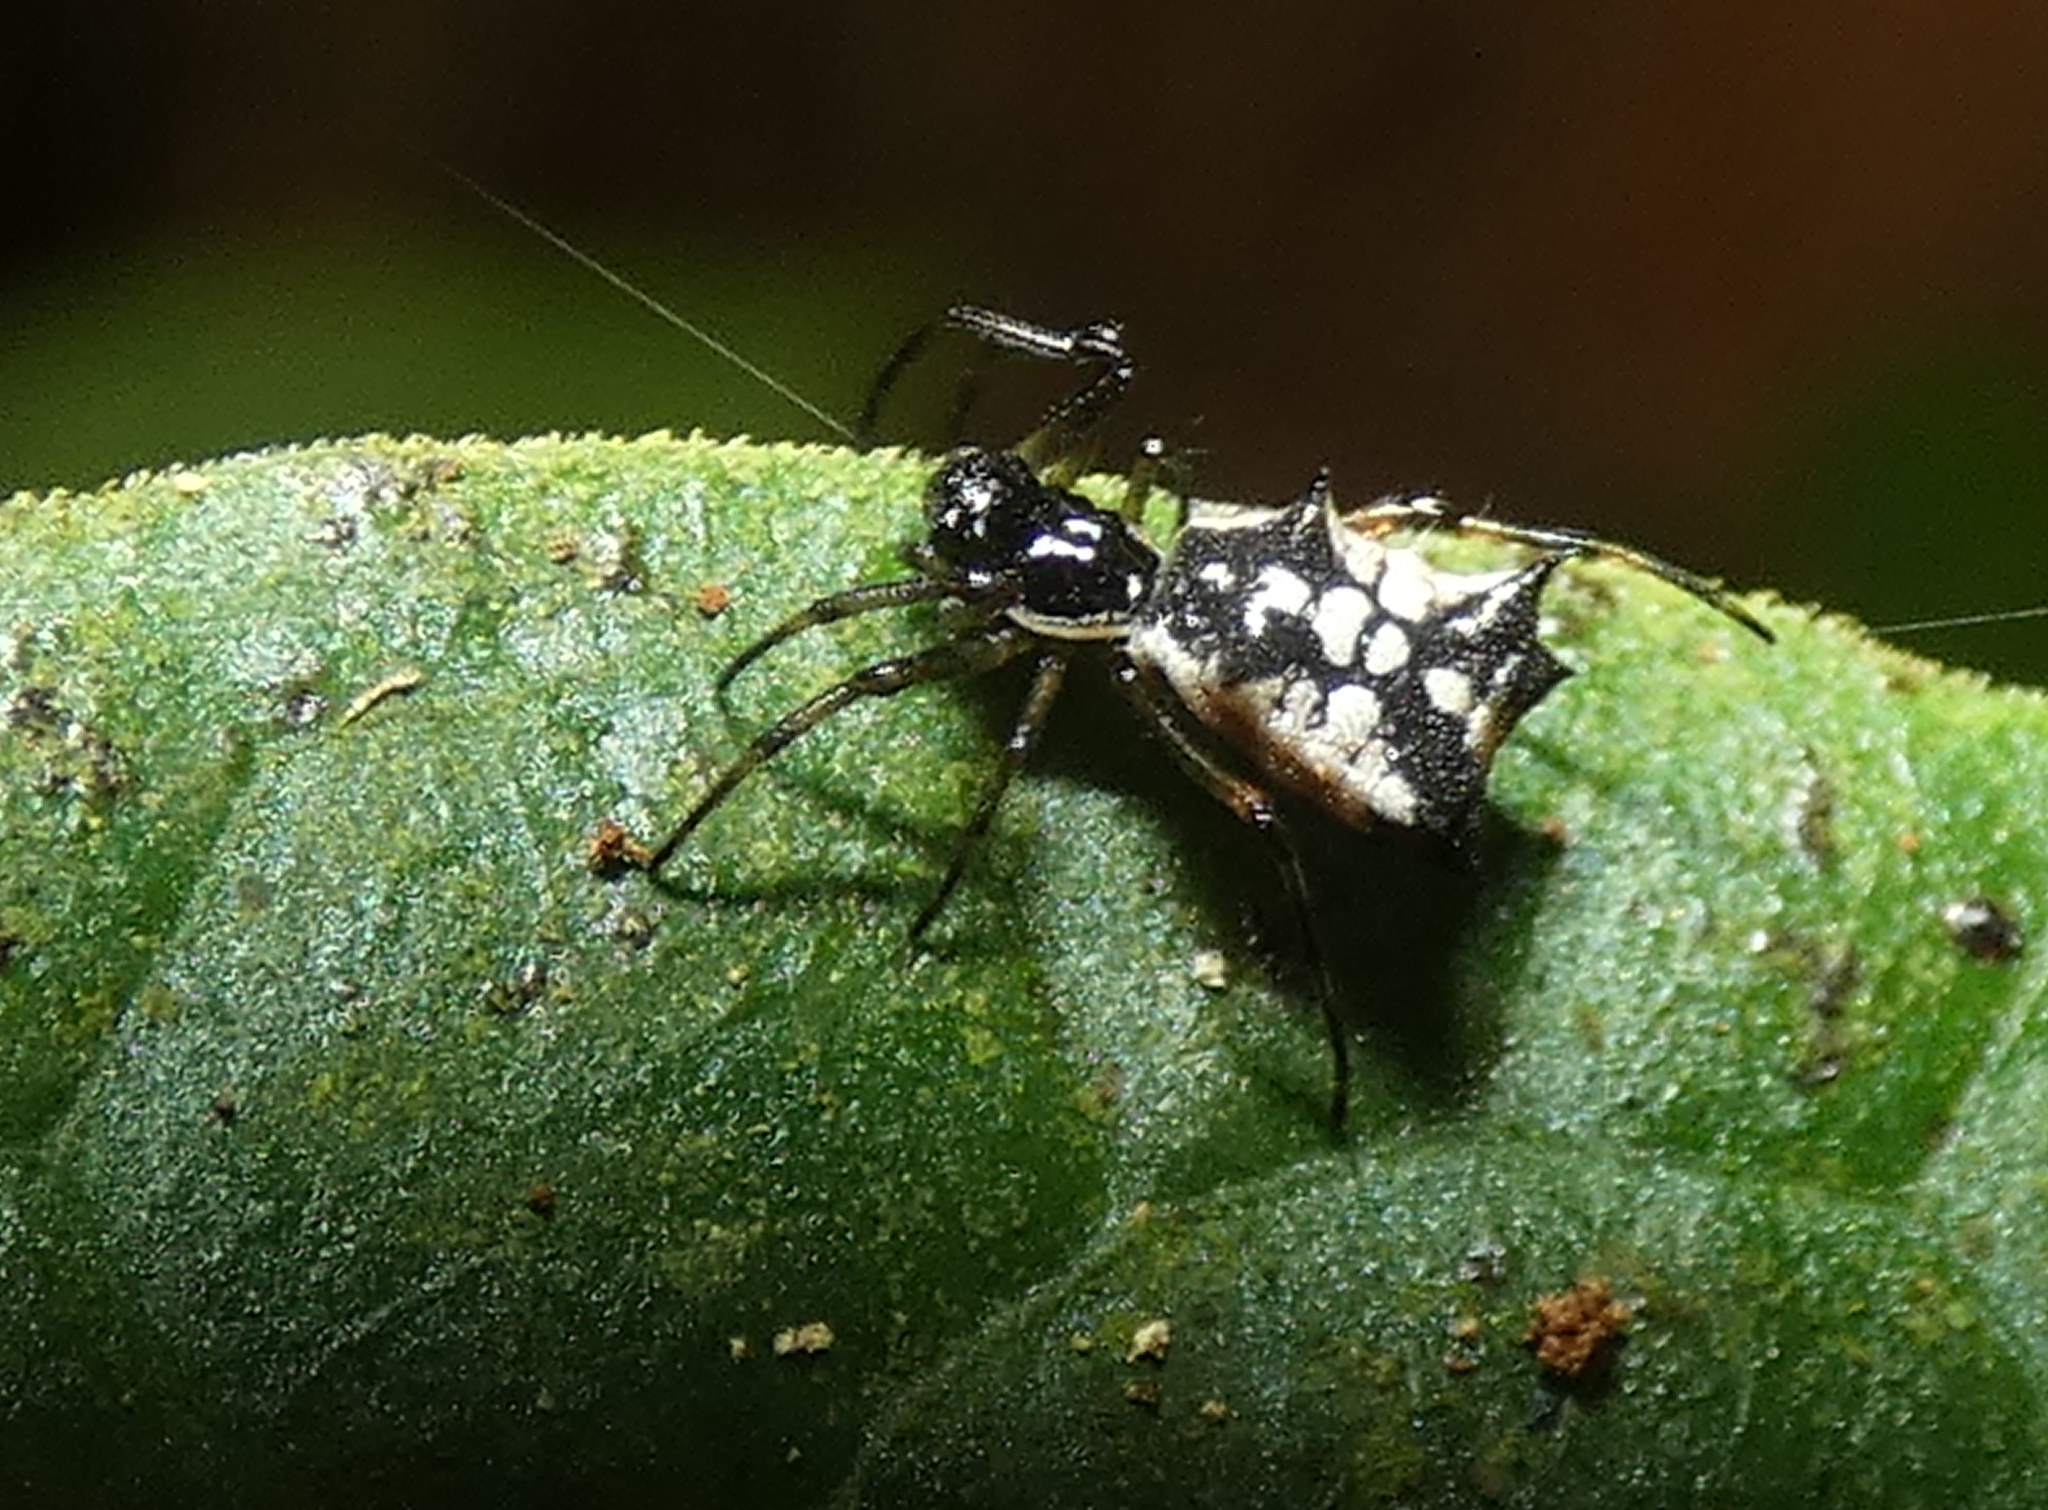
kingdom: Animalia
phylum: Arthropoda
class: Arachnida
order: Araneae
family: Araneidae
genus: Micrathena
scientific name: Micrathena picta
